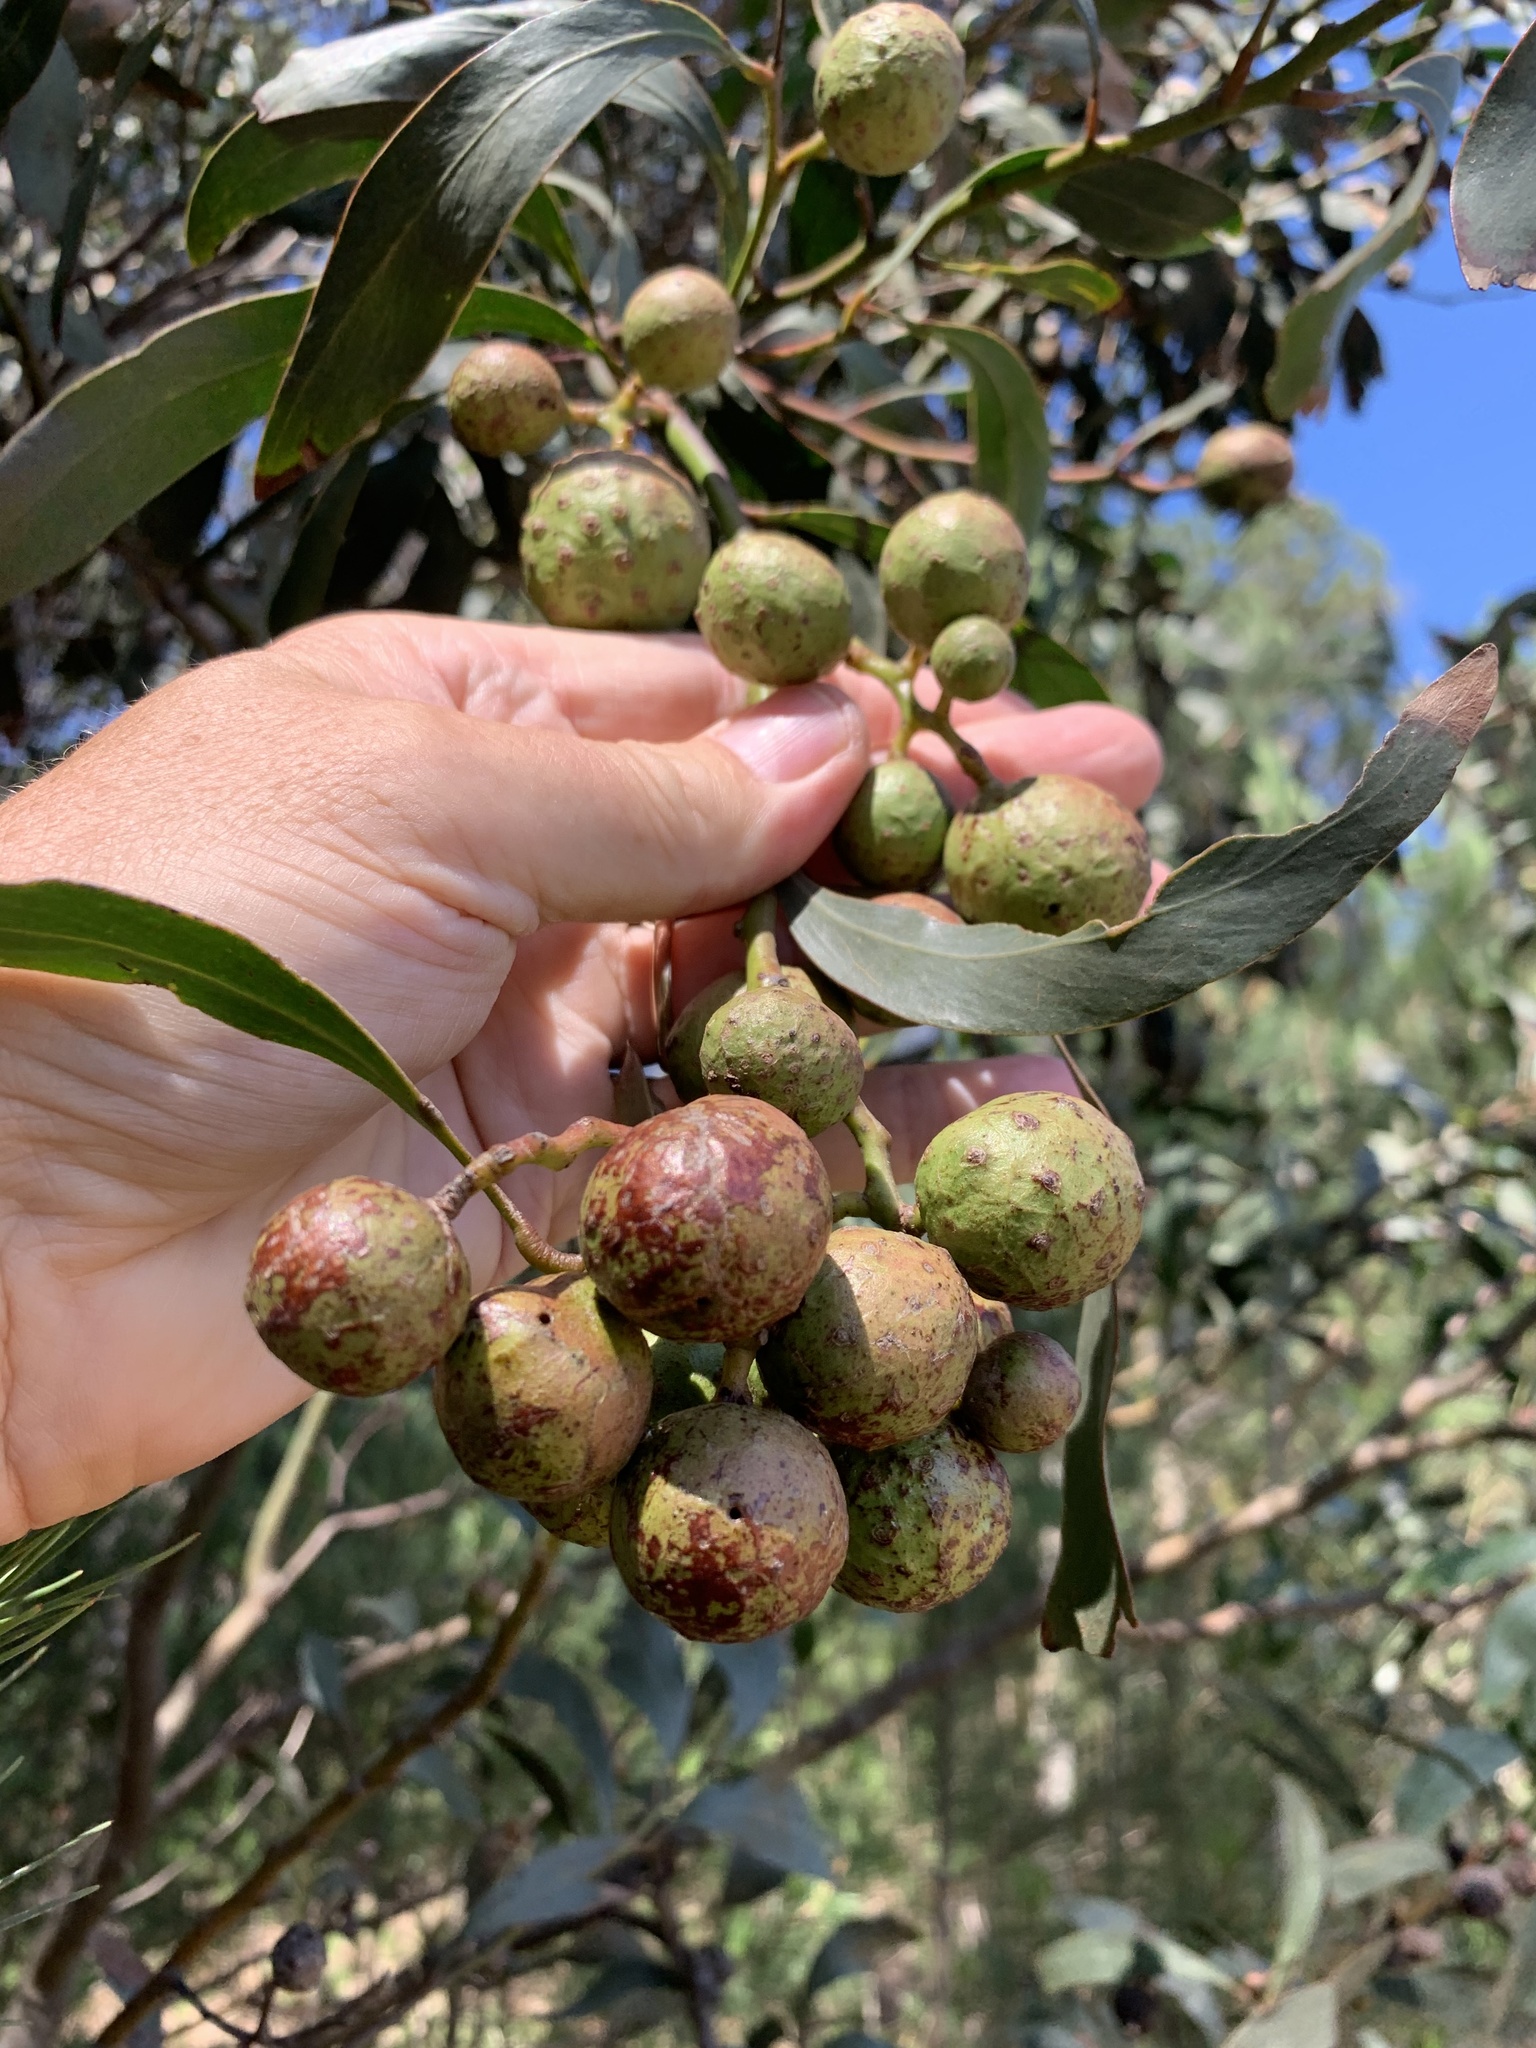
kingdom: Plantae
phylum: Tracheophyta
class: Magnoliopsida
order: Fabales
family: Fabaceae
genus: Acacia
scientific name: Acacia pycnantha
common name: Golden wattle
